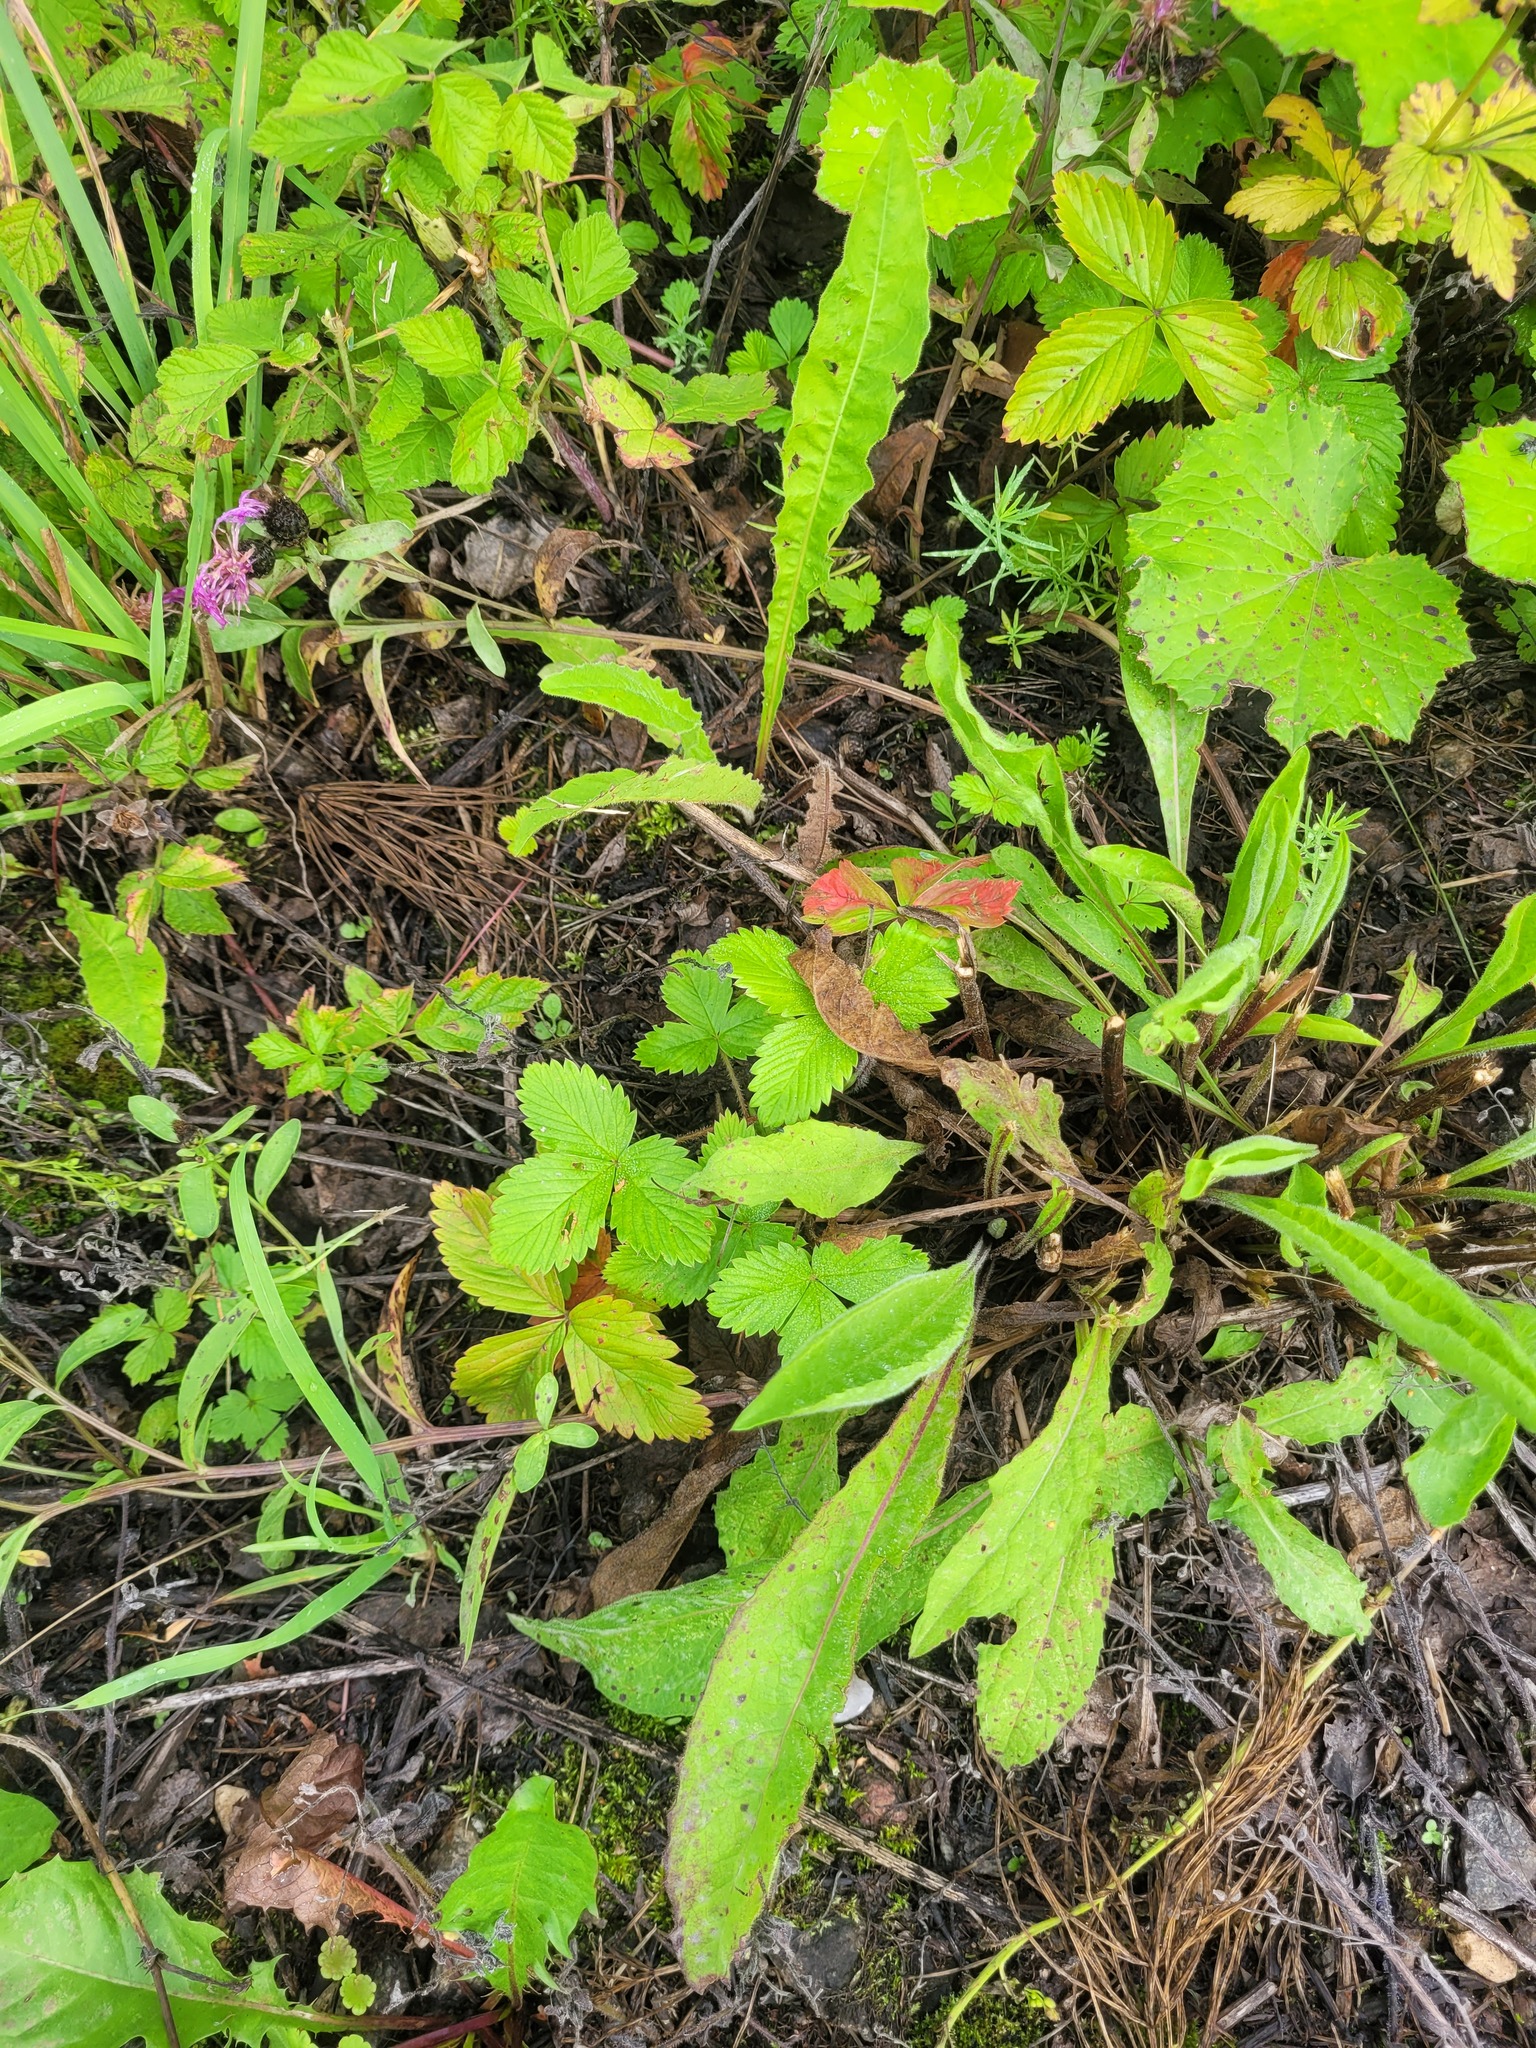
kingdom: Plantae
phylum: Tracheophyta
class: Magnoliopsida
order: Rosales
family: Rosaceae
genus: Fragaria
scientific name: Fragaria vesca
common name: Wild strawberry
